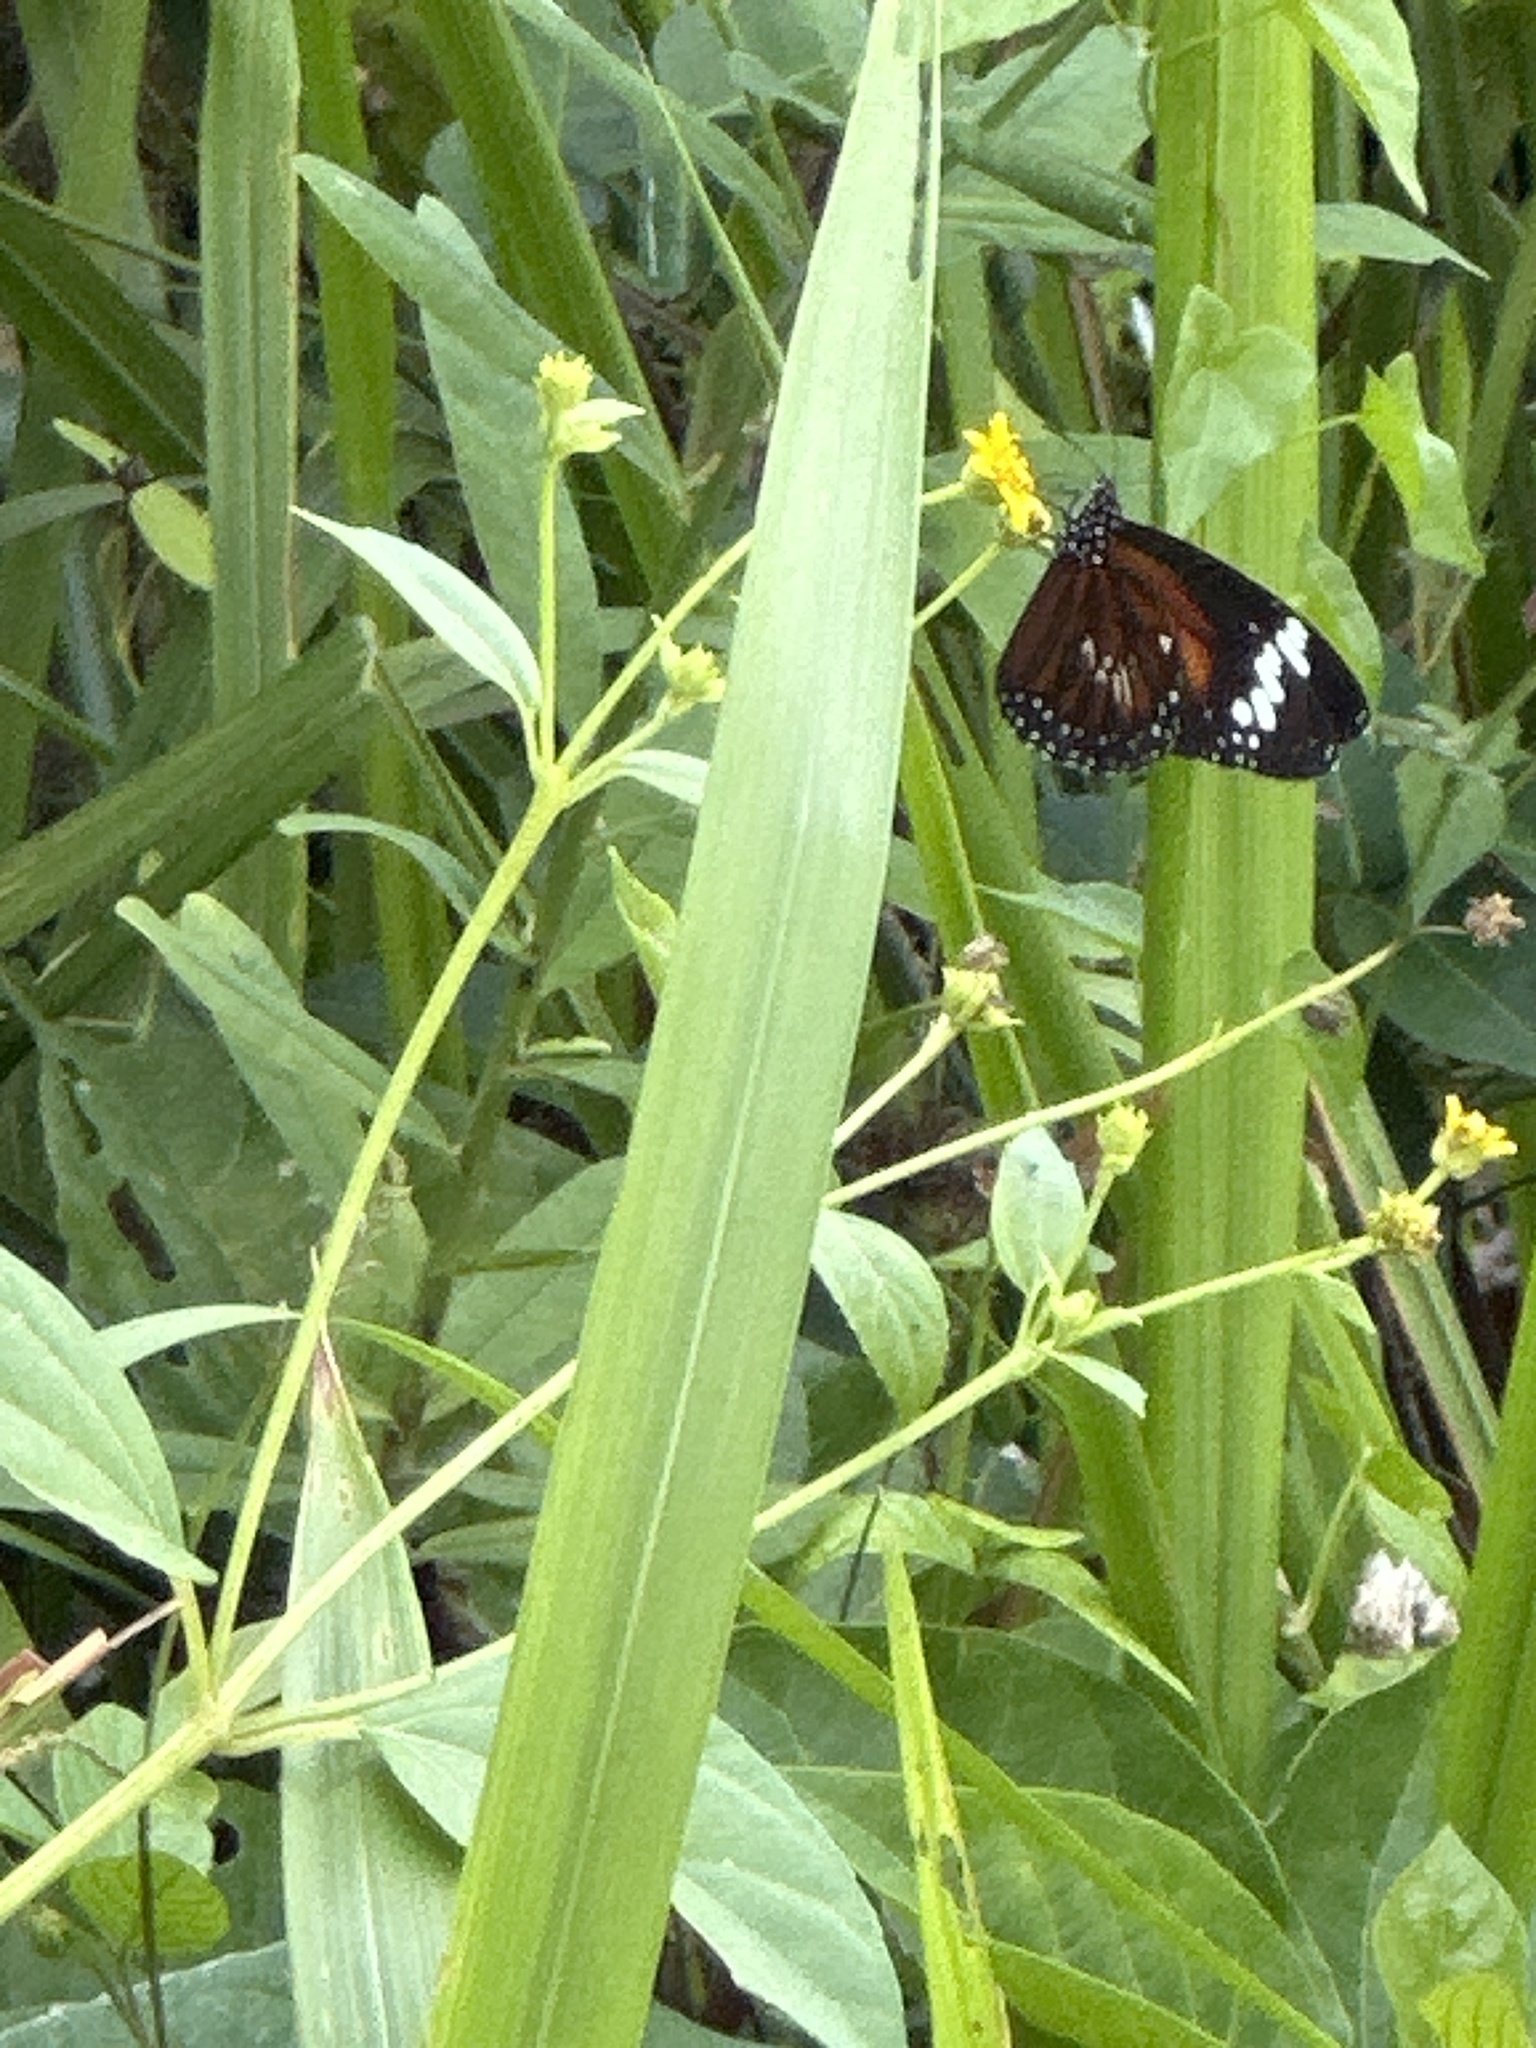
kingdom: Animalia
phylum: Arthropoda
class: Insecta
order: Lepidoptera
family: Nymphalidae
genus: Danaus
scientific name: Danaus affinis
